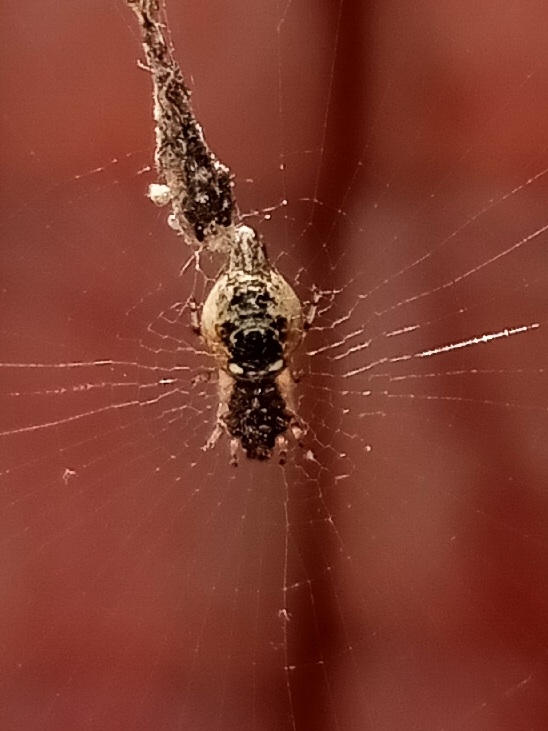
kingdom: Animalia
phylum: Arthropoda
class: Arachnida
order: Araneae
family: Araneidae
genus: Cyclosa
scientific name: Cyclosa turbinata
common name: Orb weavers
